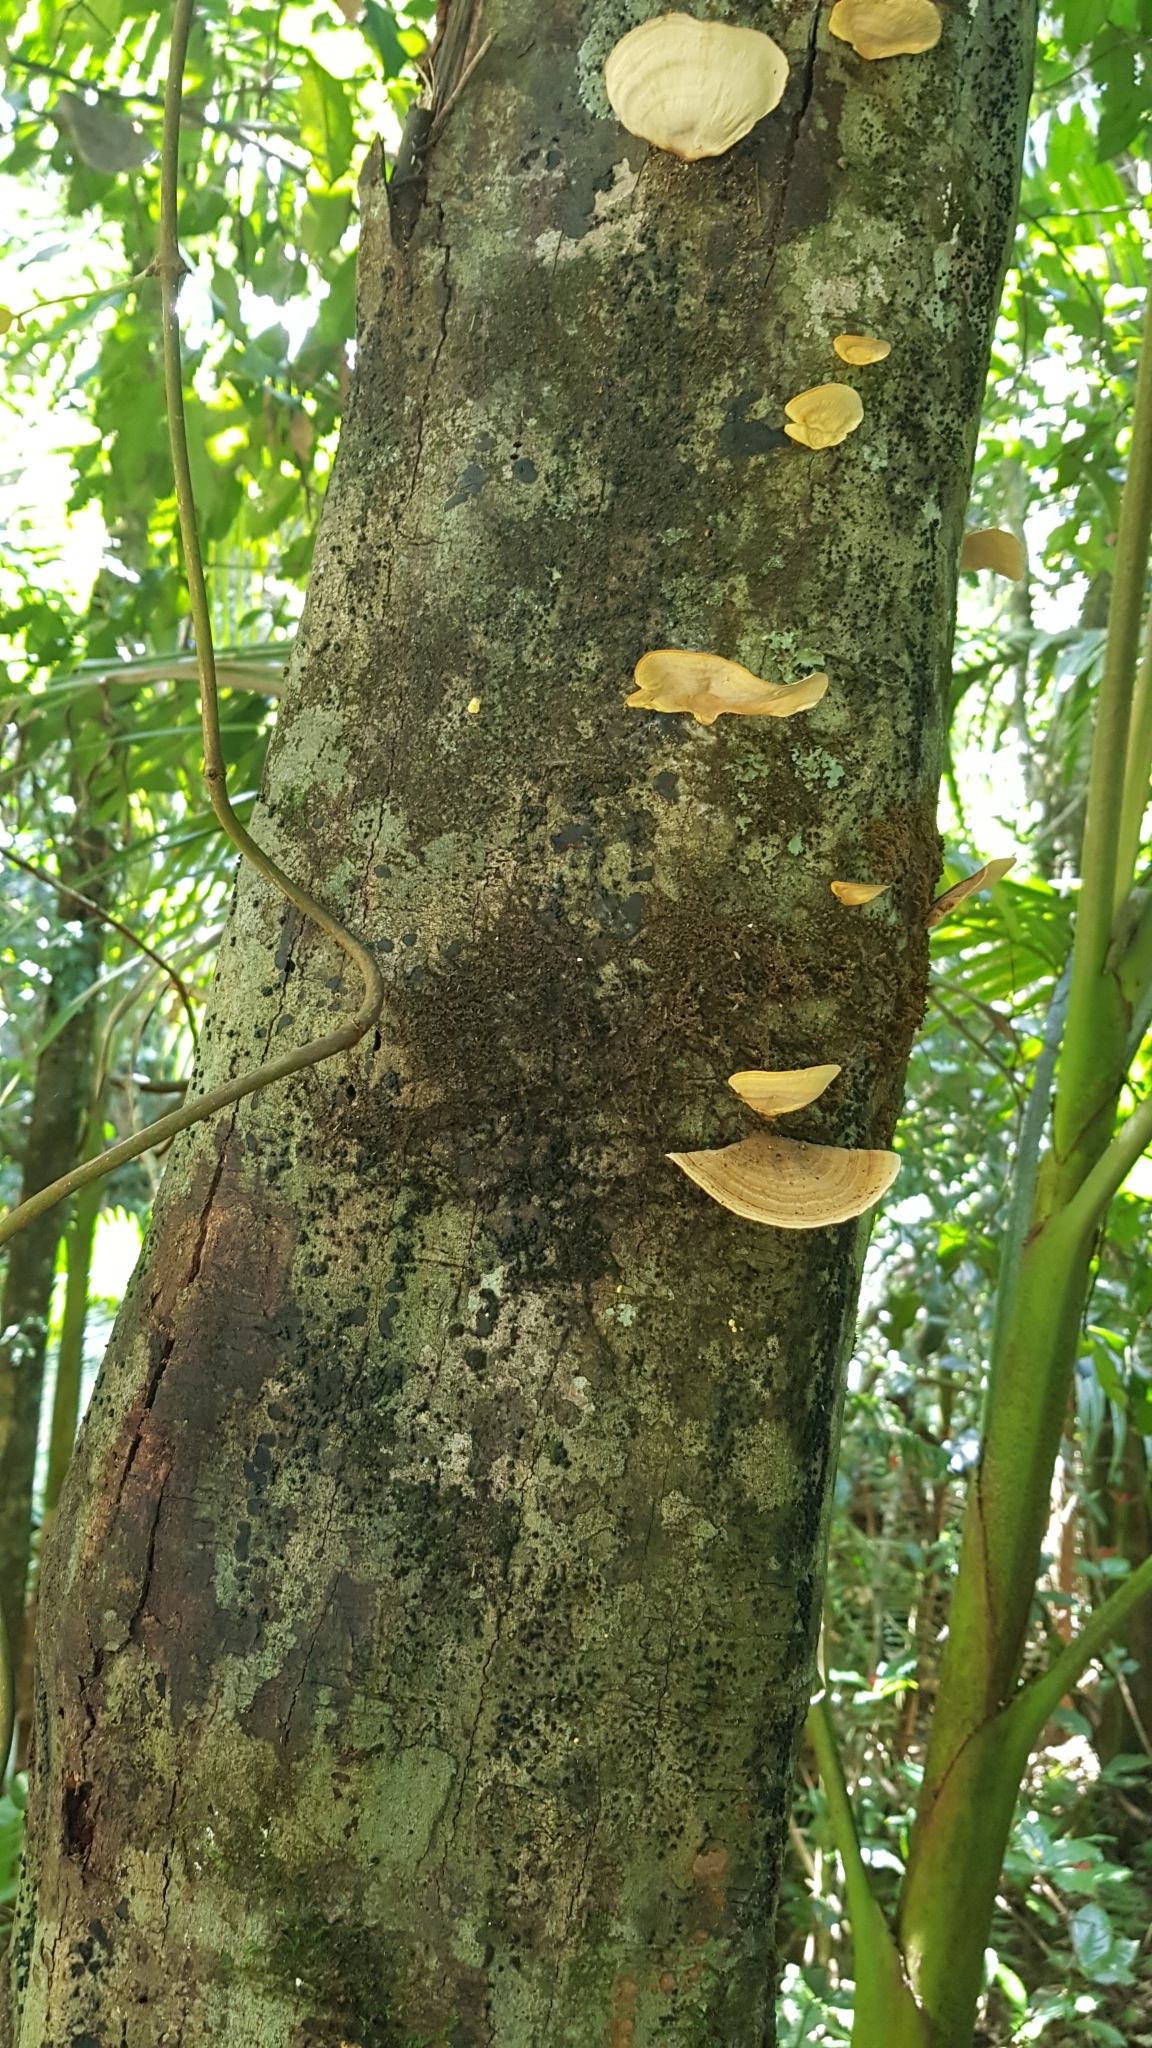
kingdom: Fungi
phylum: Basidiomycota
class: Agaricomycetes
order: Russulales
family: Stereaceae
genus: Stereum
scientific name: Stereum ostrea
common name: False turkeytail
